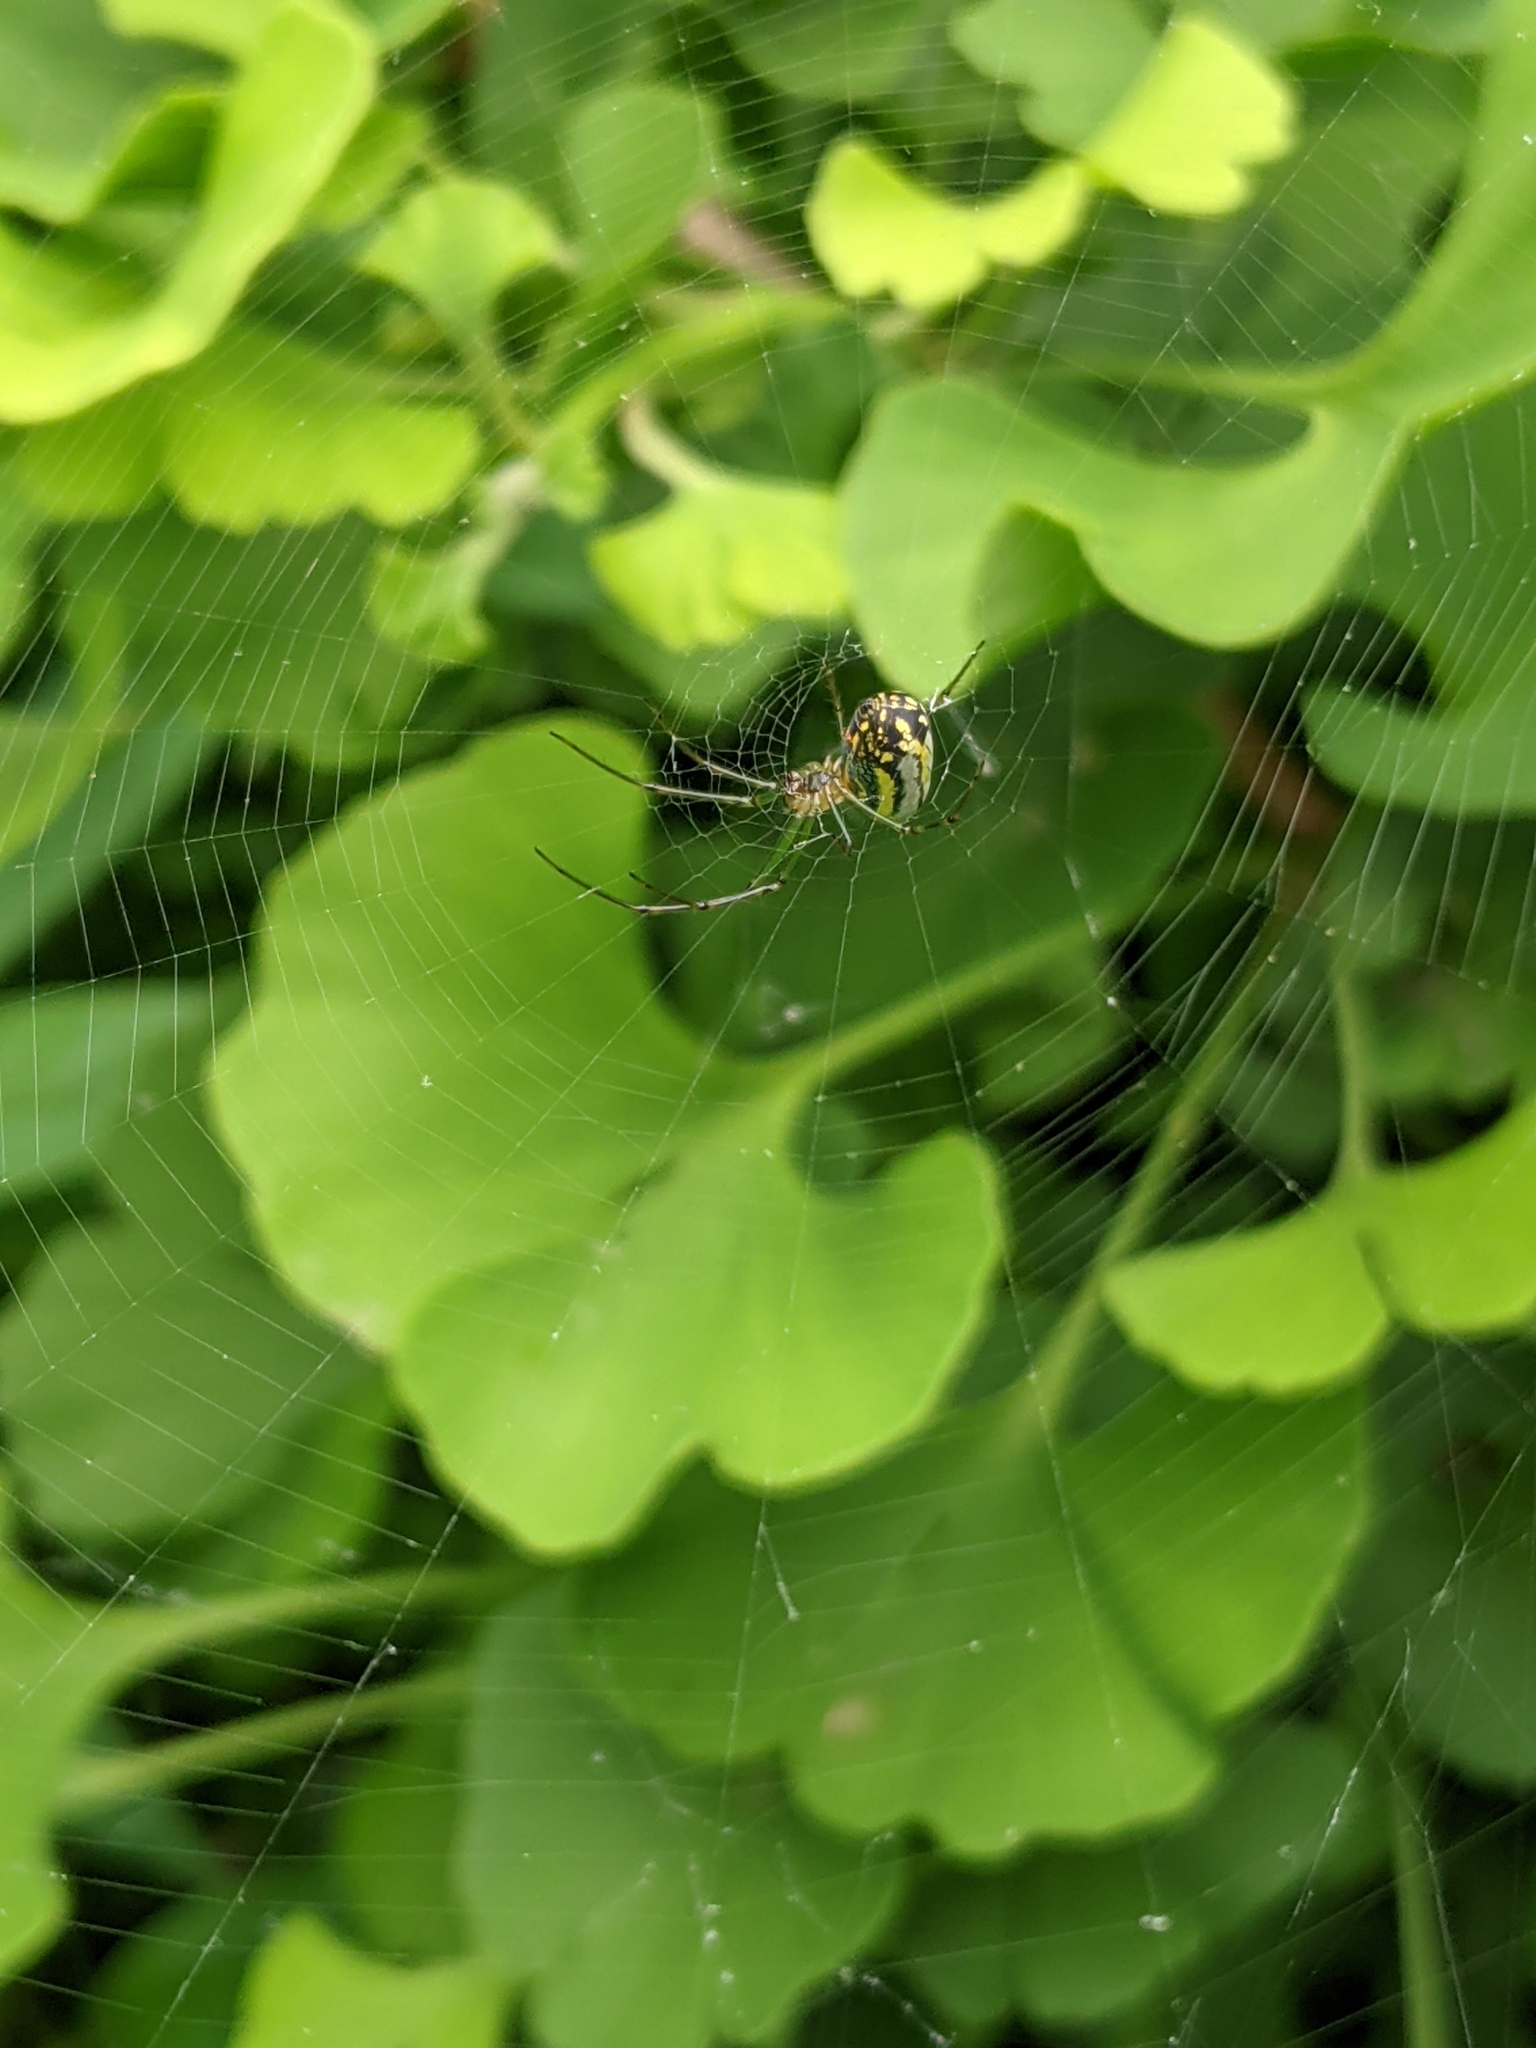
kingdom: Animalia
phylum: Arthropoda
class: Arachnida
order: Araneae
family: Tetragnathidae
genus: Leucauge
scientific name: Leucauge venusta
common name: Longjawed orb weavers
